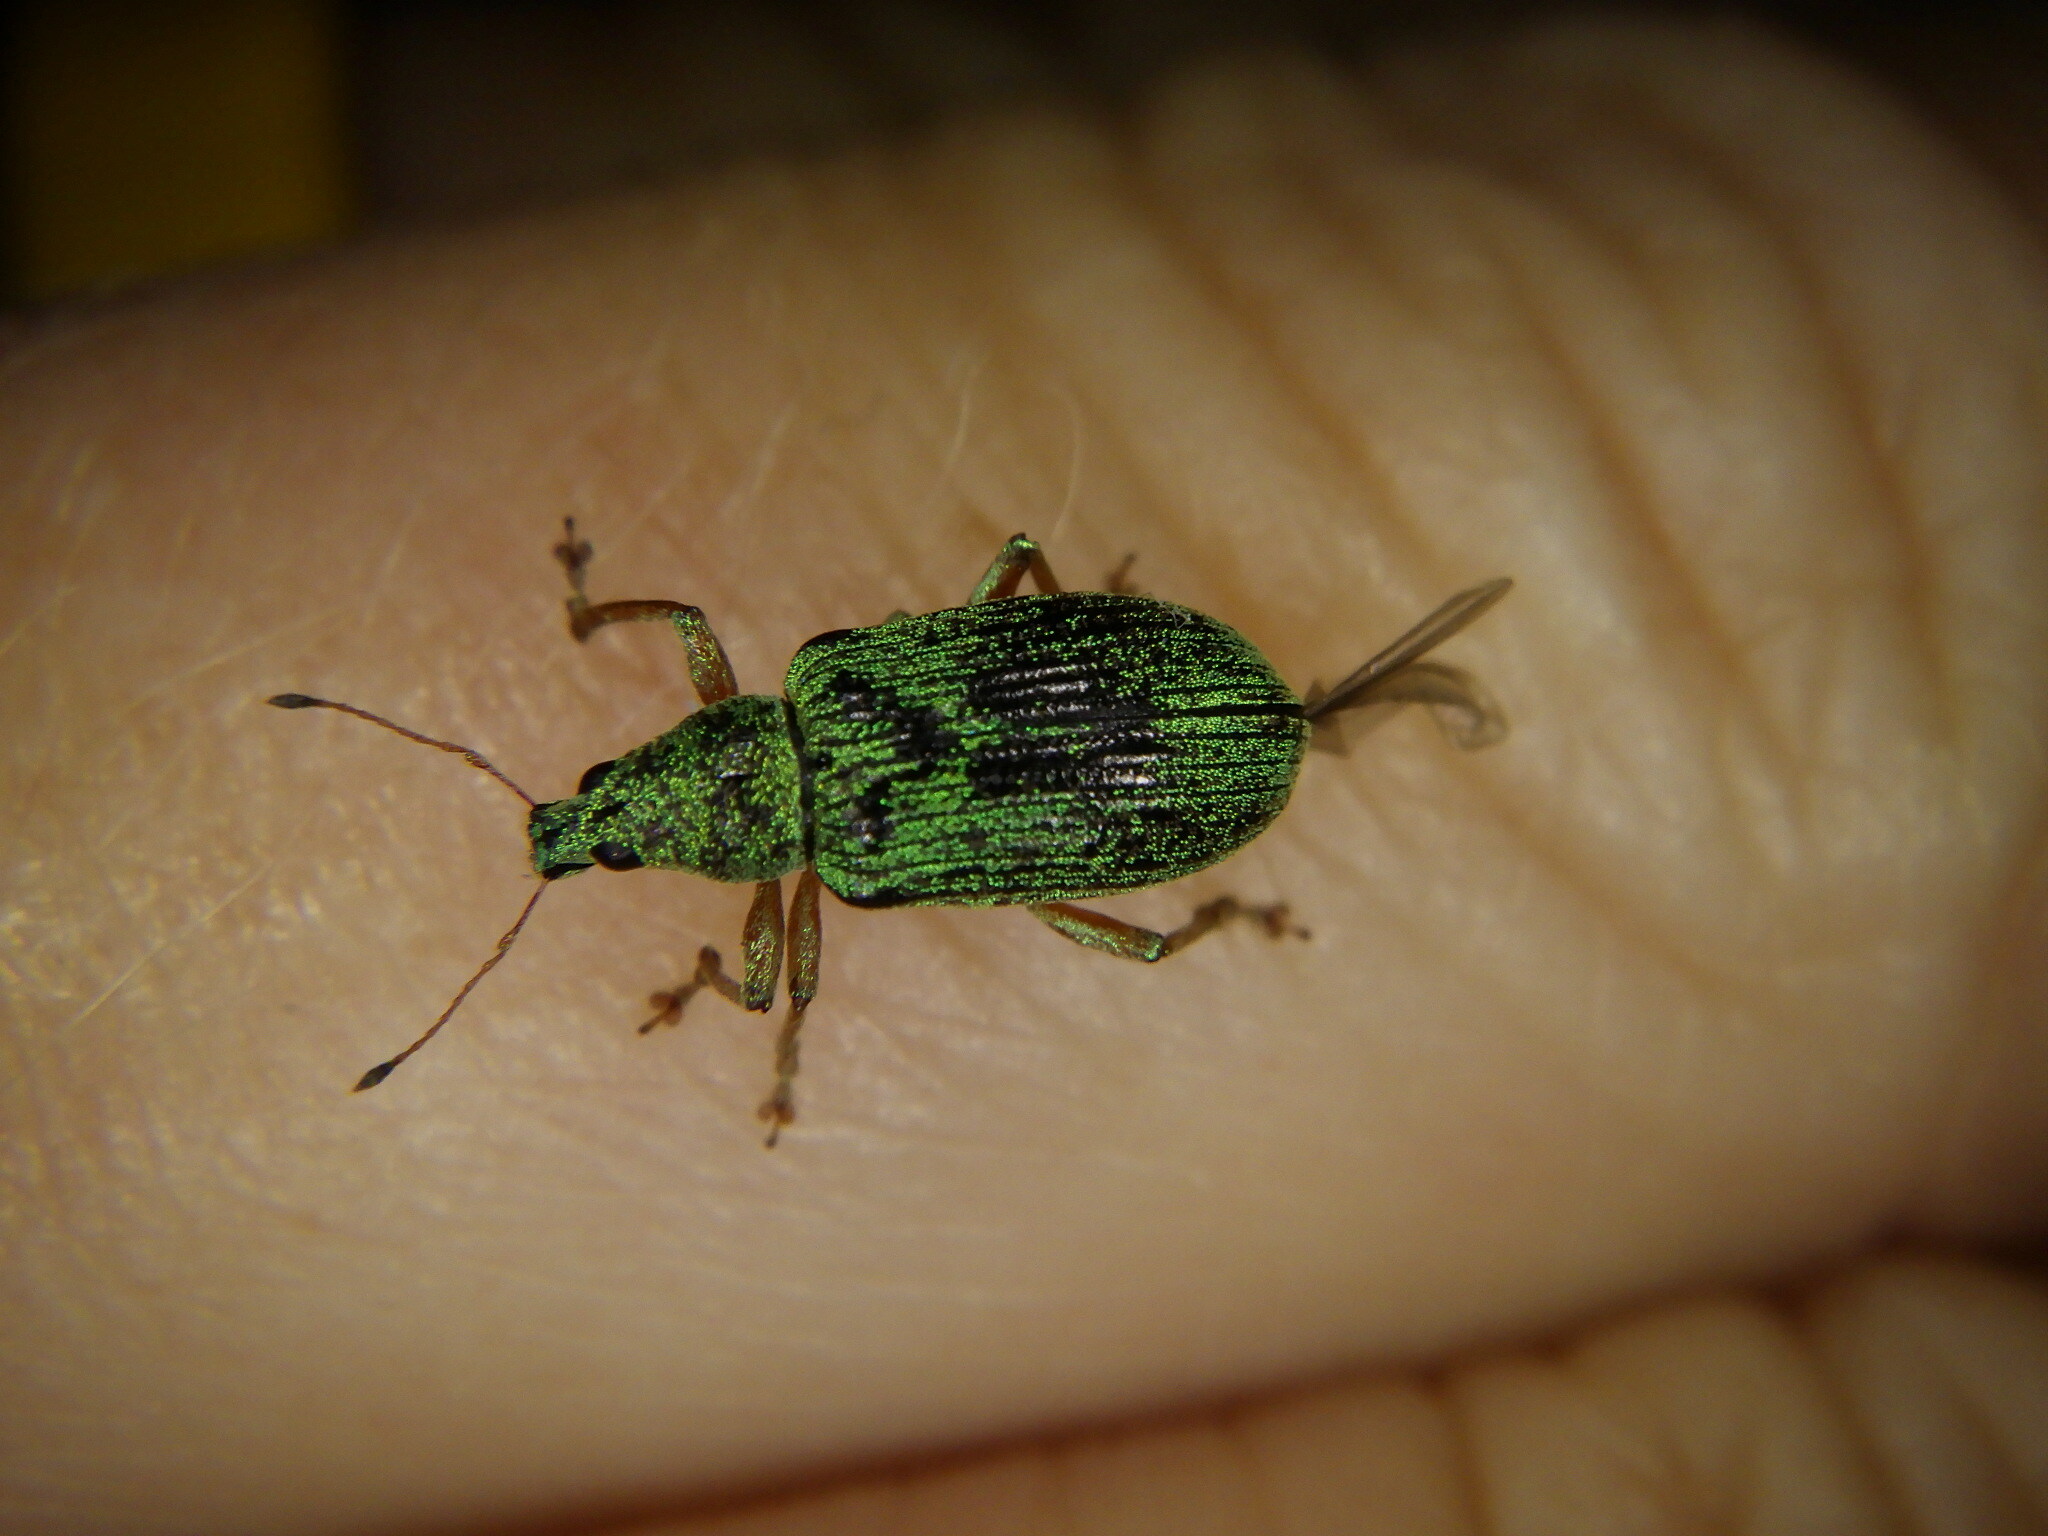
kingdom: Animalia
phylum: Arthropoda
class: Insecta
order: Coleoptera
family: Curculionidae
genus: Polydrusus
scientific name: Polydrusus formosus
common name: Weevil
